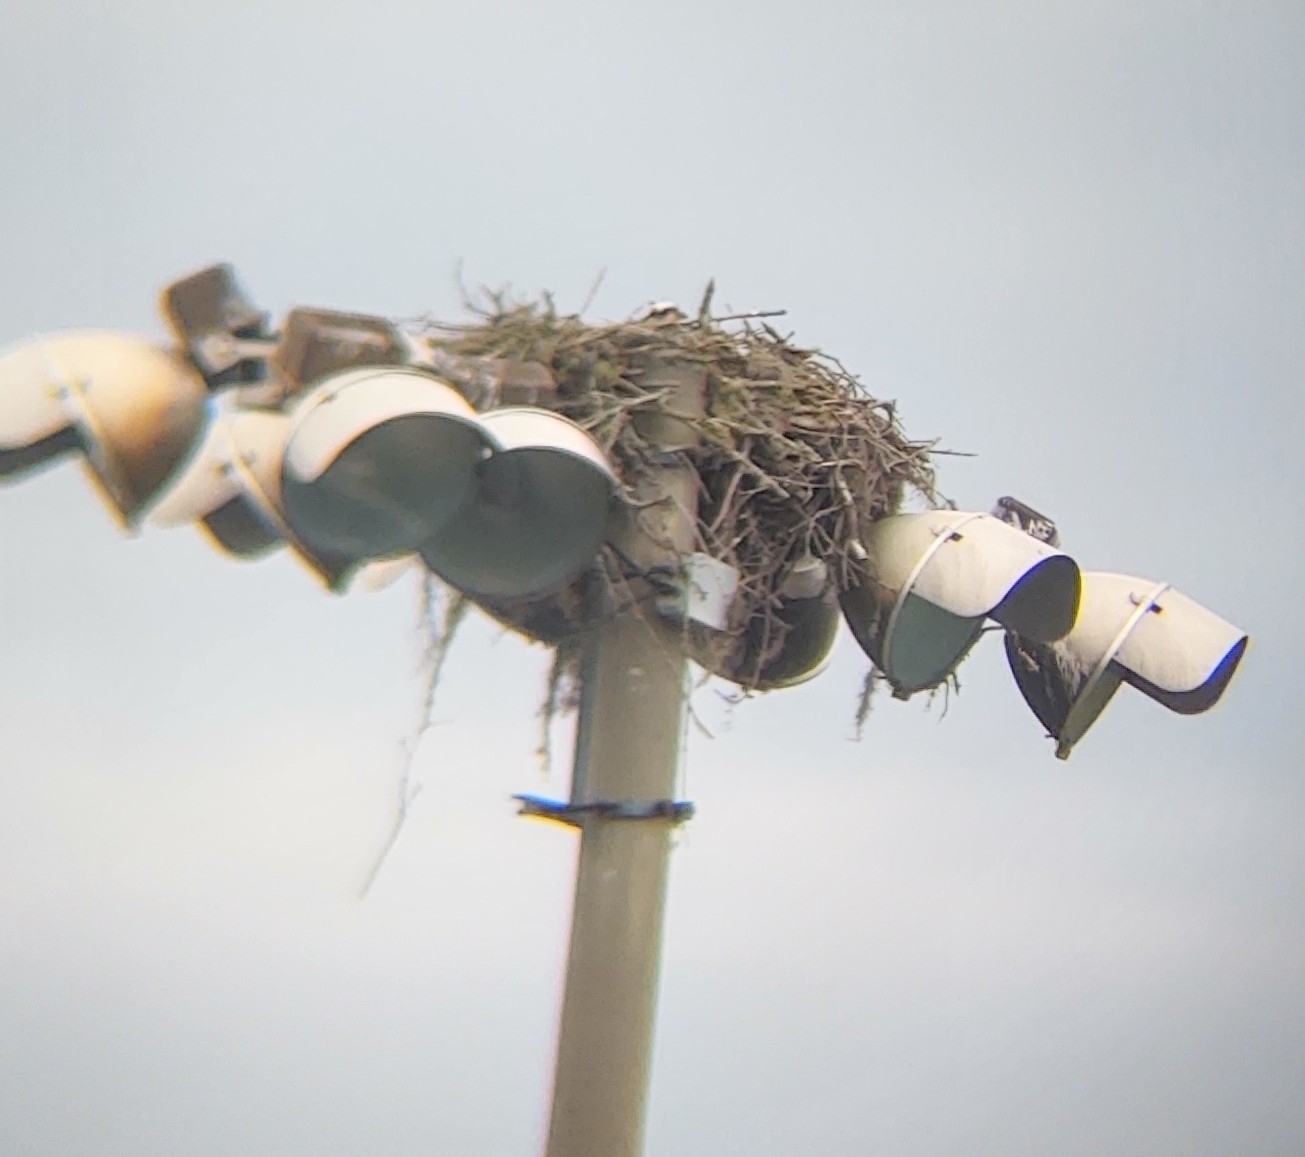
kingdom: Animalia
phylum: Chordata
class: Aves
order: Accipitriformes
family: Pandionidae
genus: Pandion
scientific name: Pandion haliaetus
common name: Osprey
